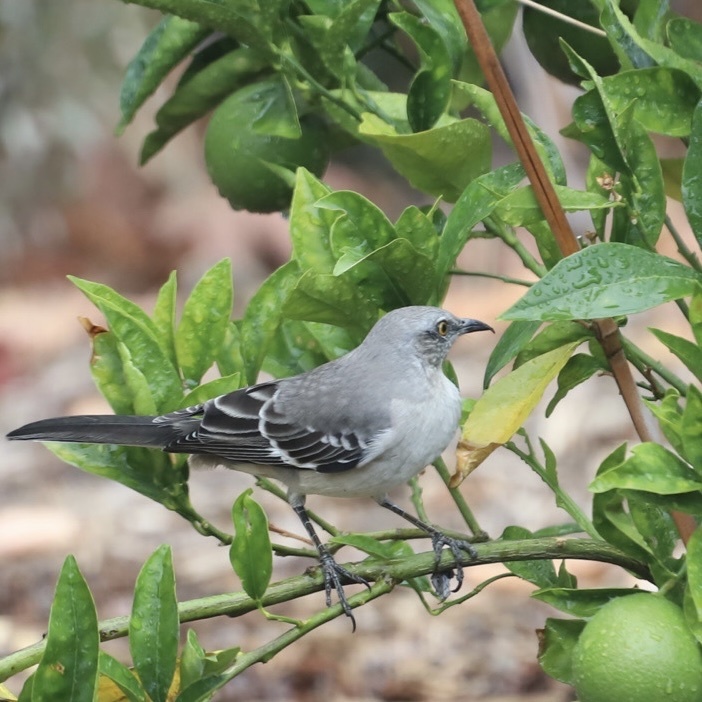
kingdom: Animalia
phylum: Chordata
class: Aves
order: Passeriformes
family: Mimidae
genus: Mimus
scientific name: Mimus polyglottos
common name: Northern mockingbird
